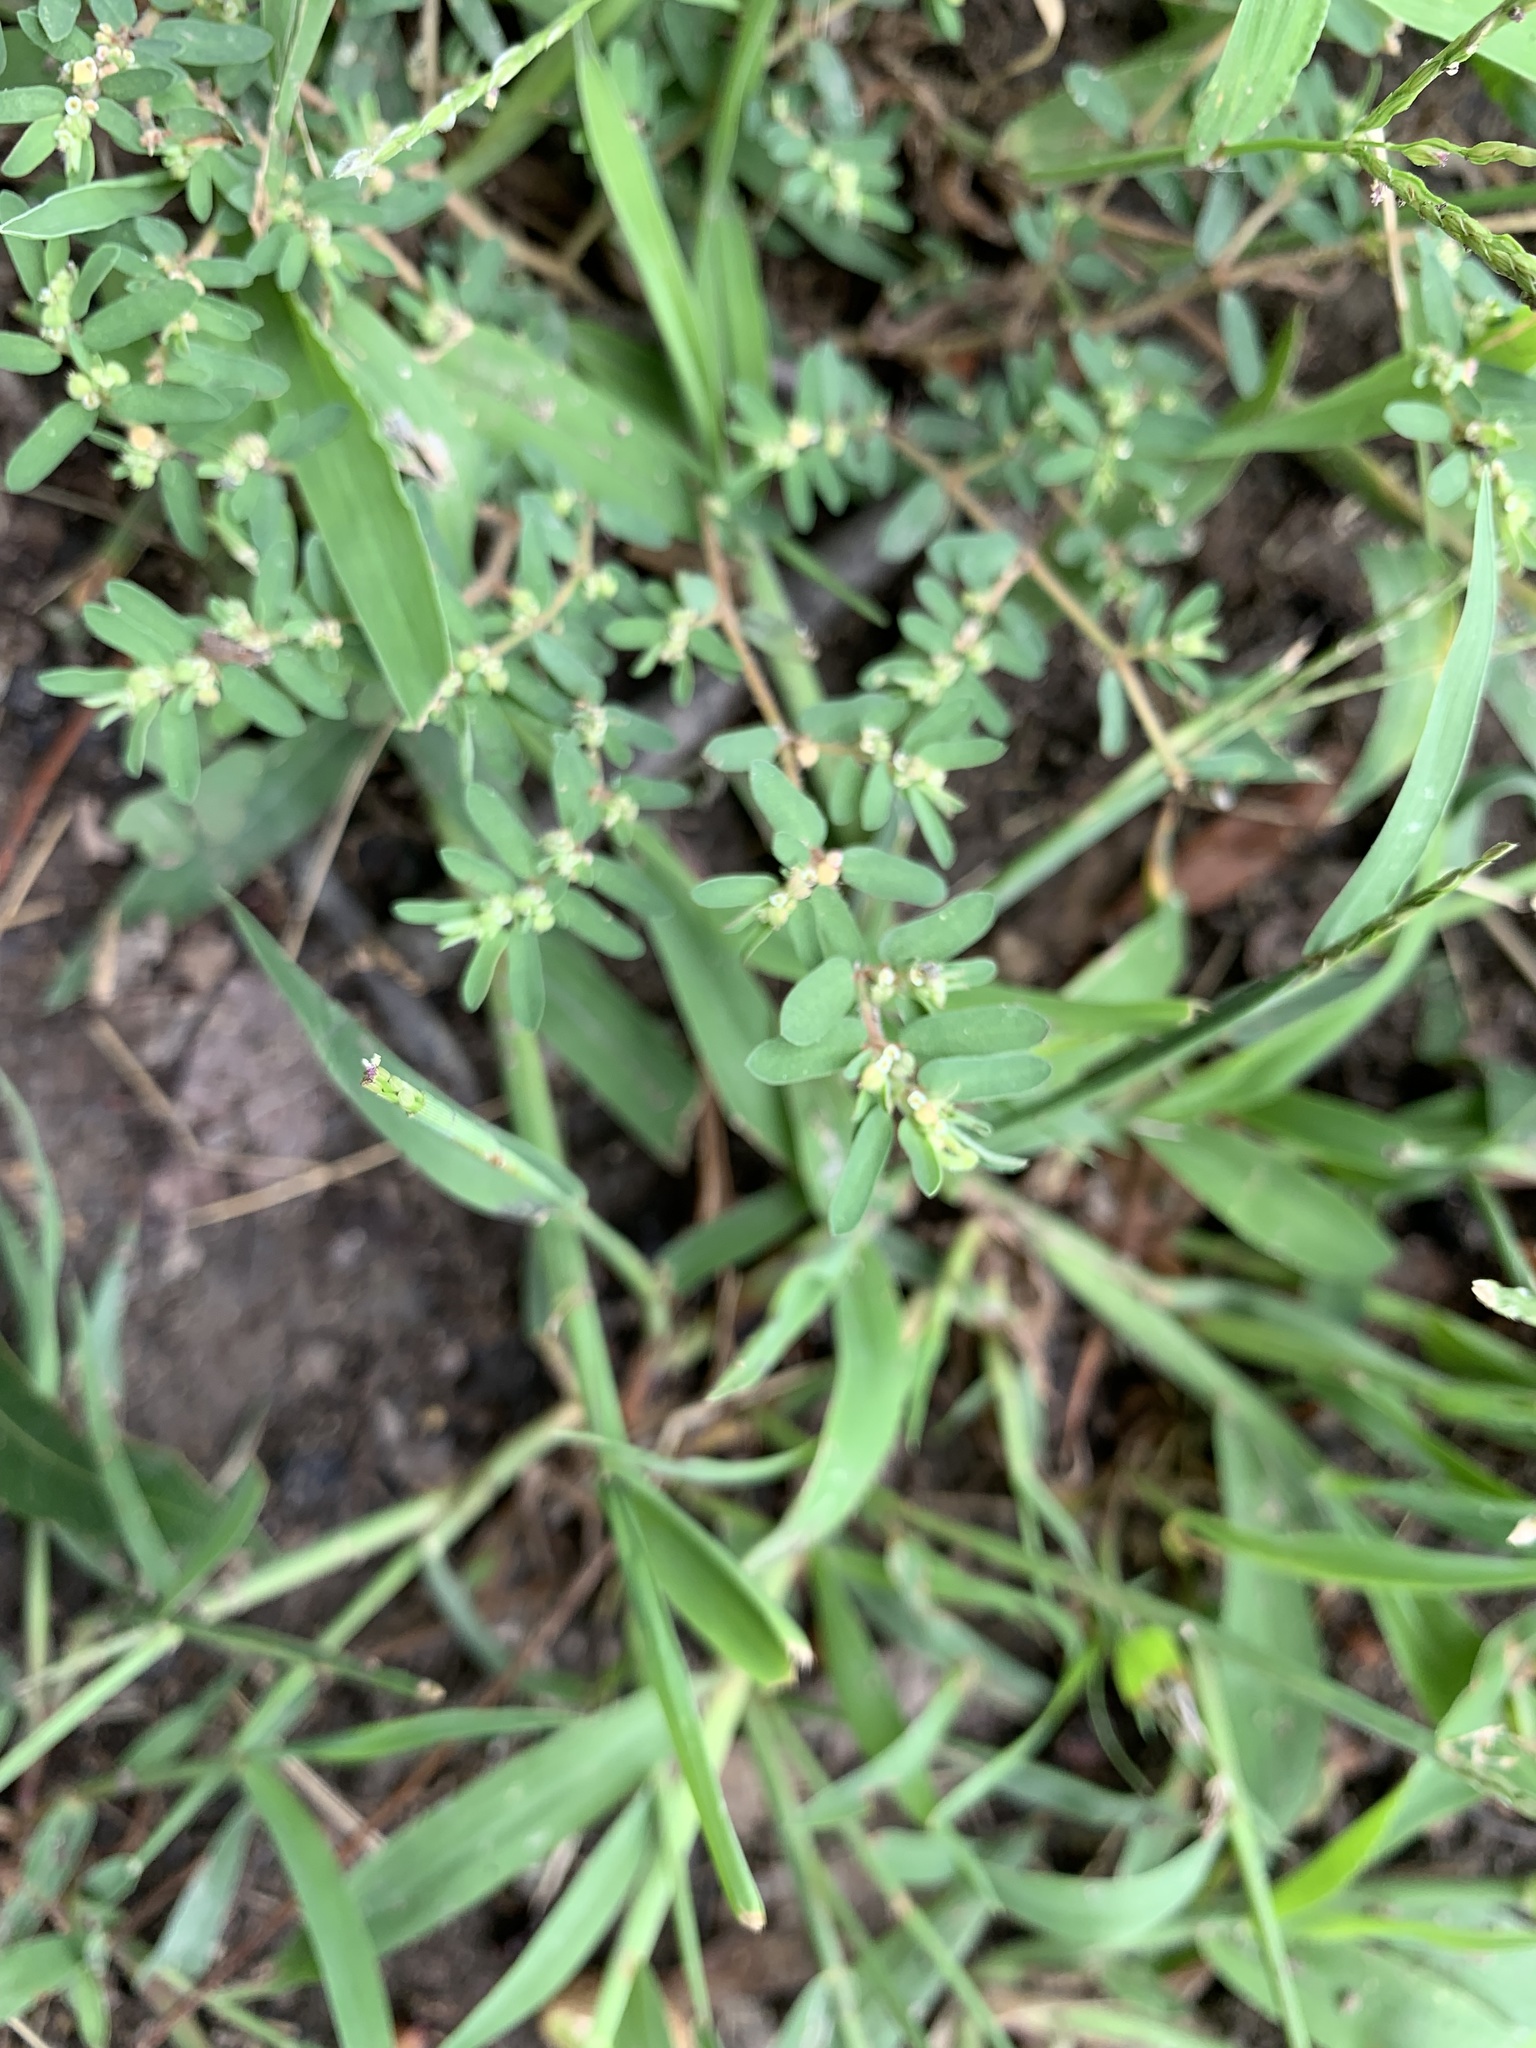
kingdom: Plantae
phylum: Tracheophyta
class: Magnoliopsida
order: Malpighiales
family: Euphorbiaceae
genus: Euphorbia
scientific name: Euphorbia maculata
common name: Spotted spurge
